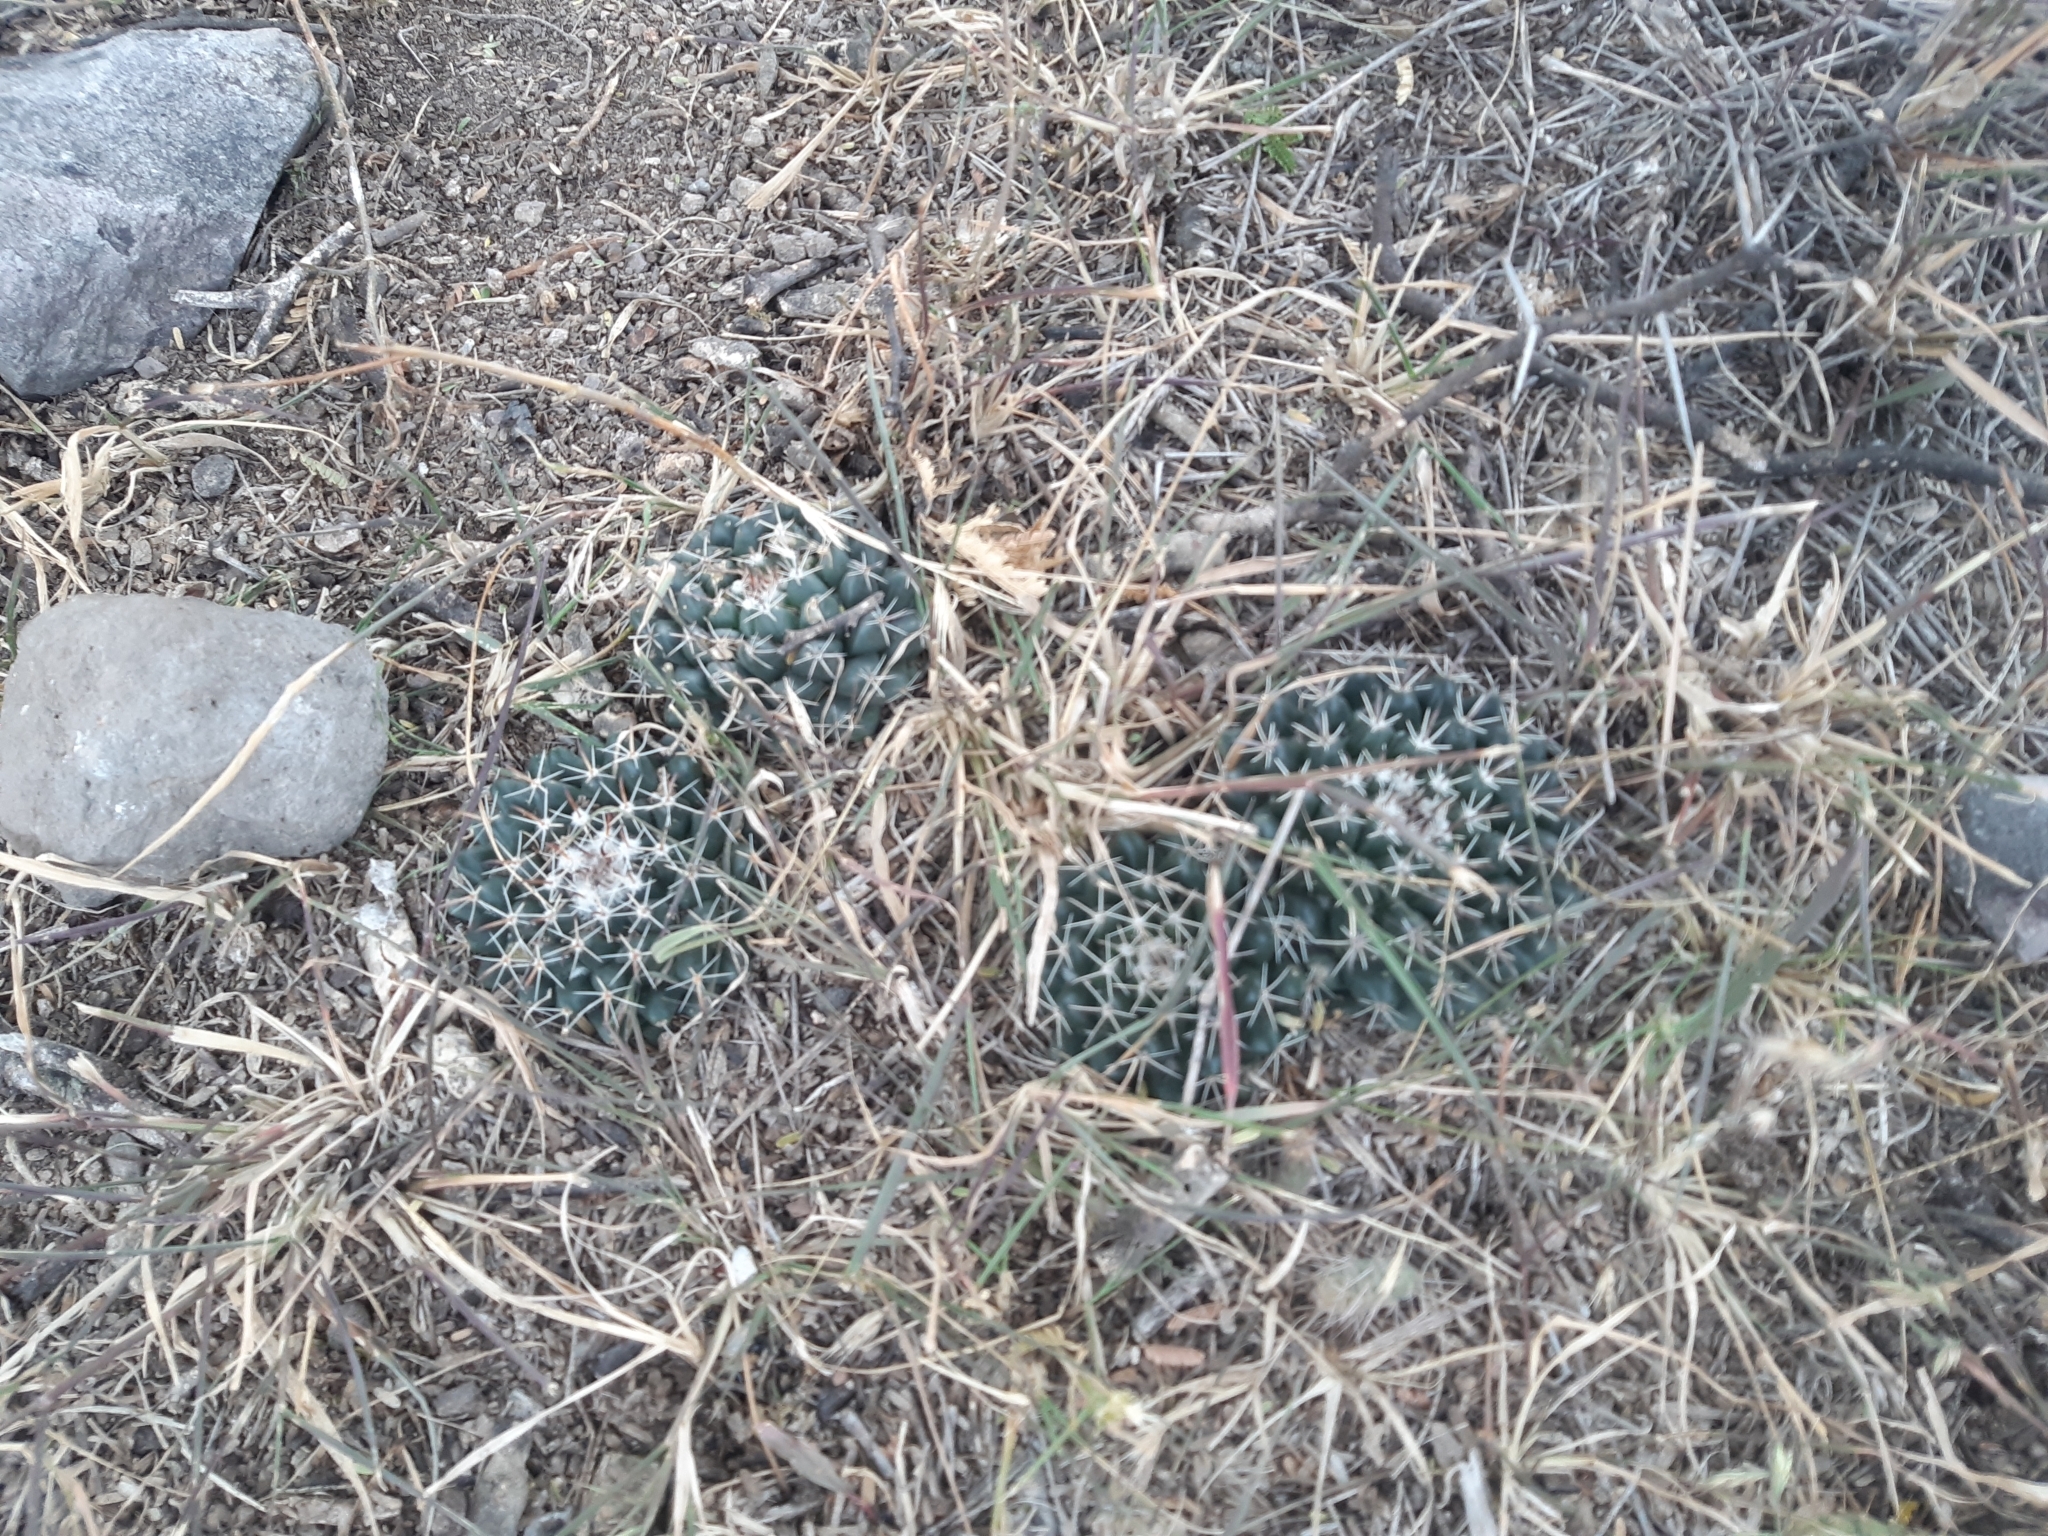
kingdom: Plantae
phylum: Tracheophyta
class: Magnoliopsida
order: Caryophyllales
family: Cactaceae
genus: Mammillaria
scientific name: Mammillaria uncinata
